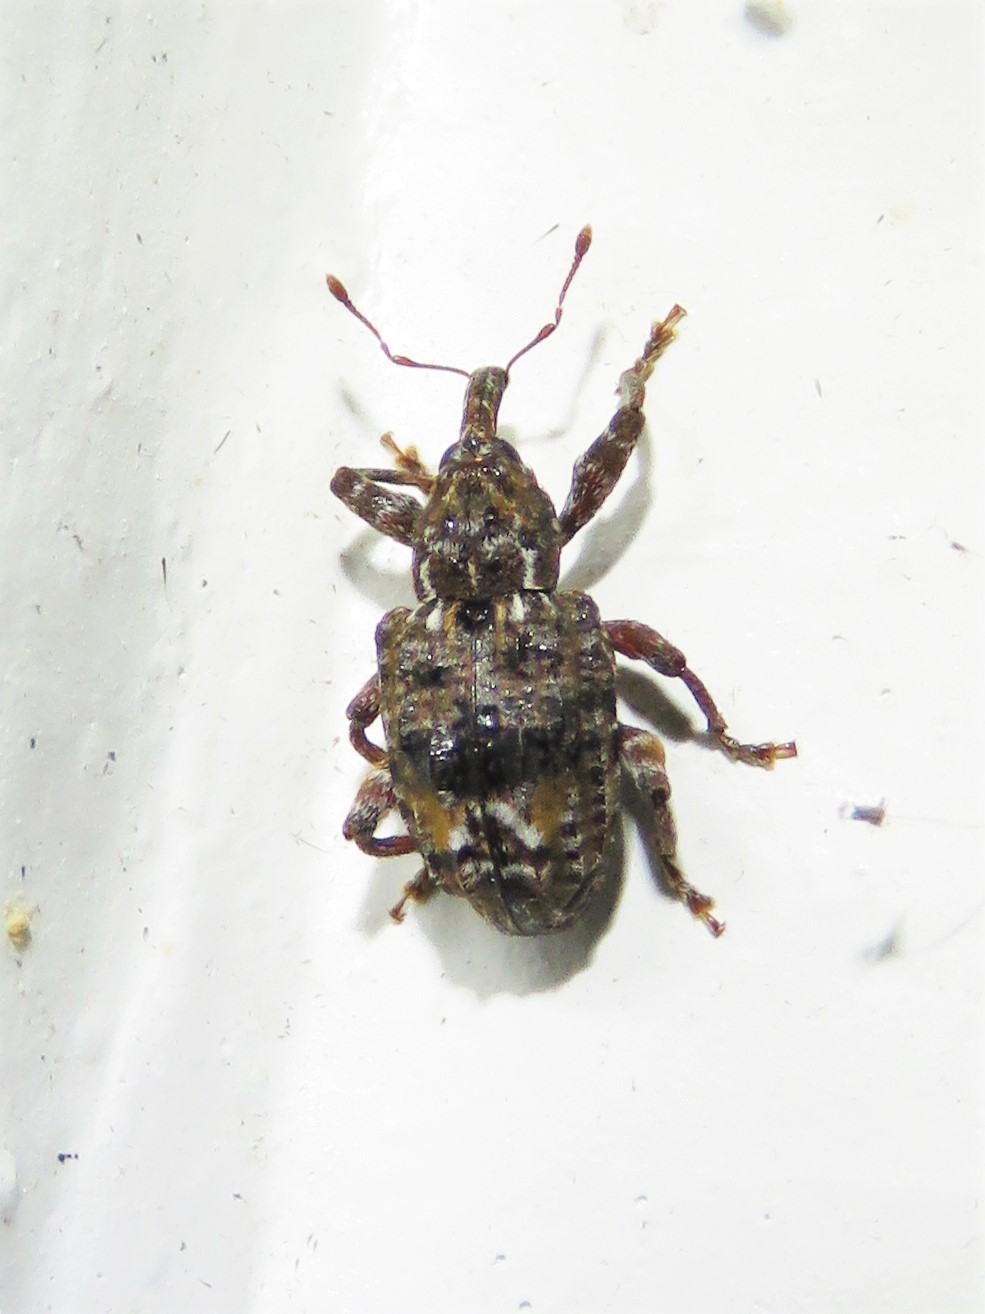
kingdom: Animalia
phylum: Arthropoda
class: Insecta
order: Coleoptera
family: Curculionidae
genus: Conotrachelus
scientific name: Conotrachelus nenuphar
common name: Plum curculio
